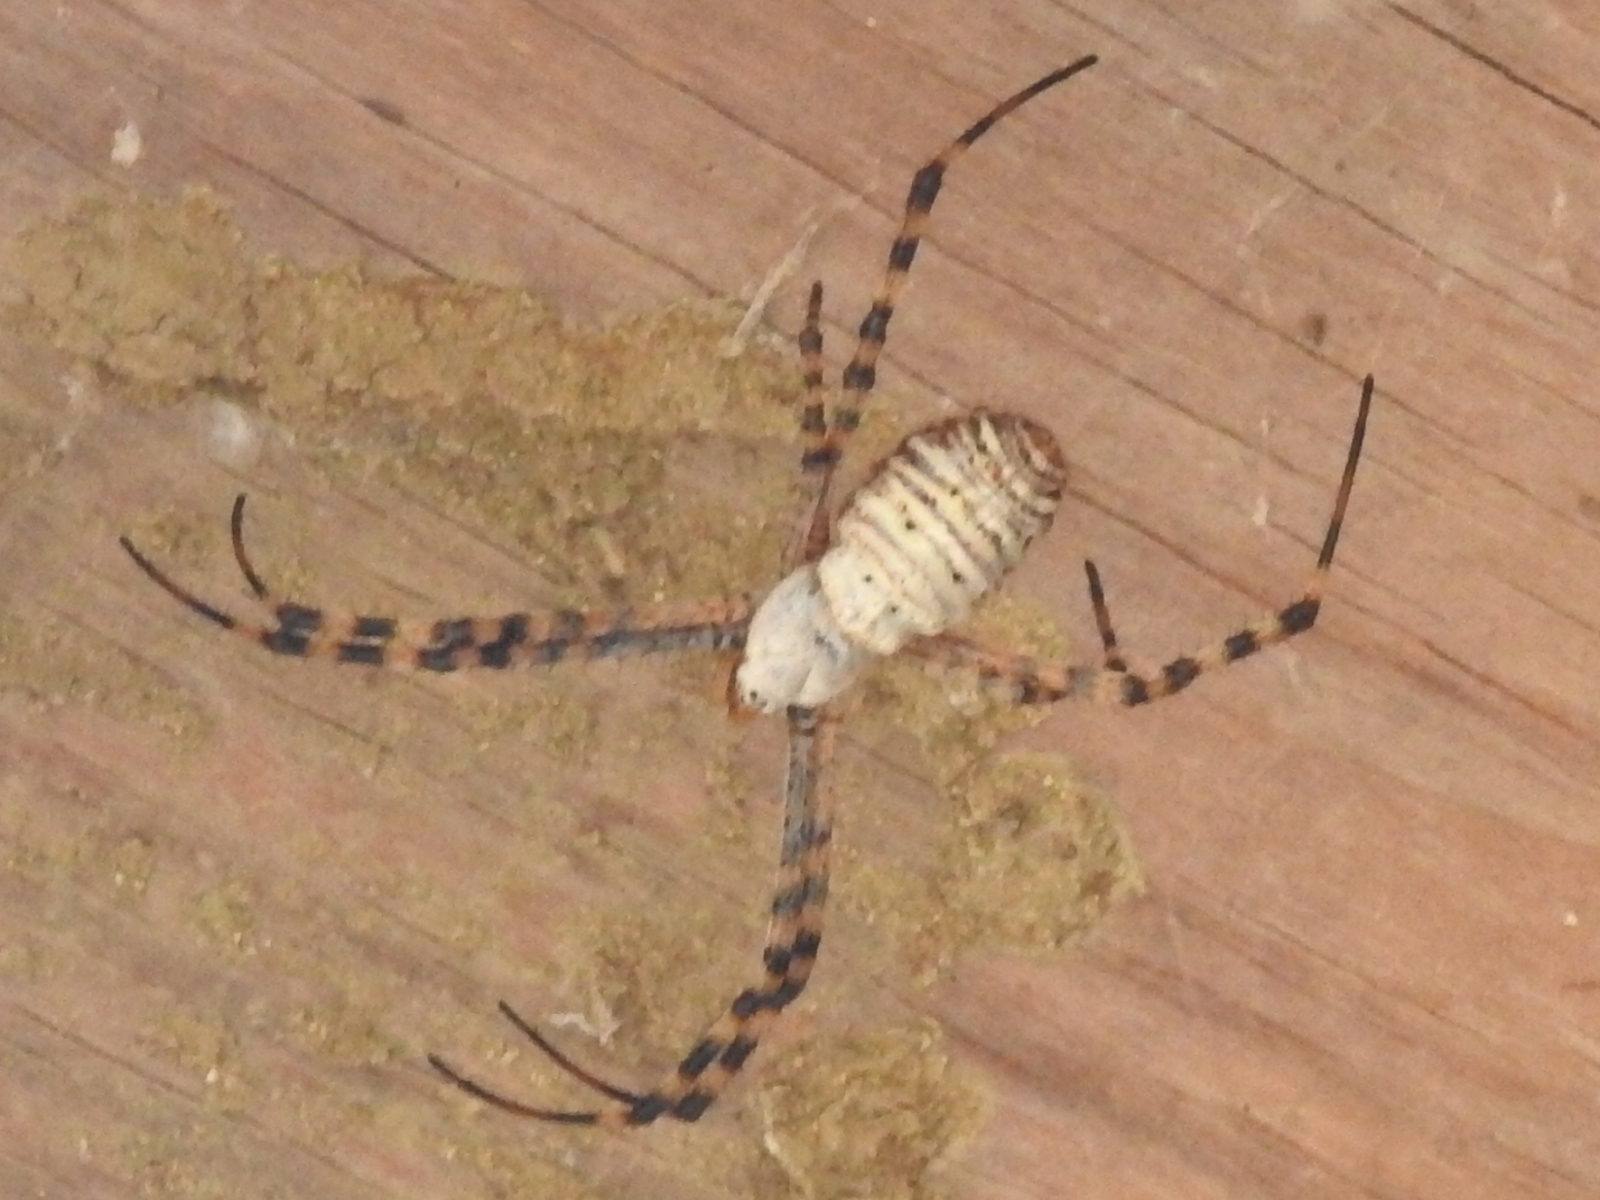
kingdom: Animalia
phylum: Arthropoda
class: Arachnida
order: Araneae
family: Araneidae
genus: Argiope
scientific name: Argiope trifasciata
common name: Banded garden spider
